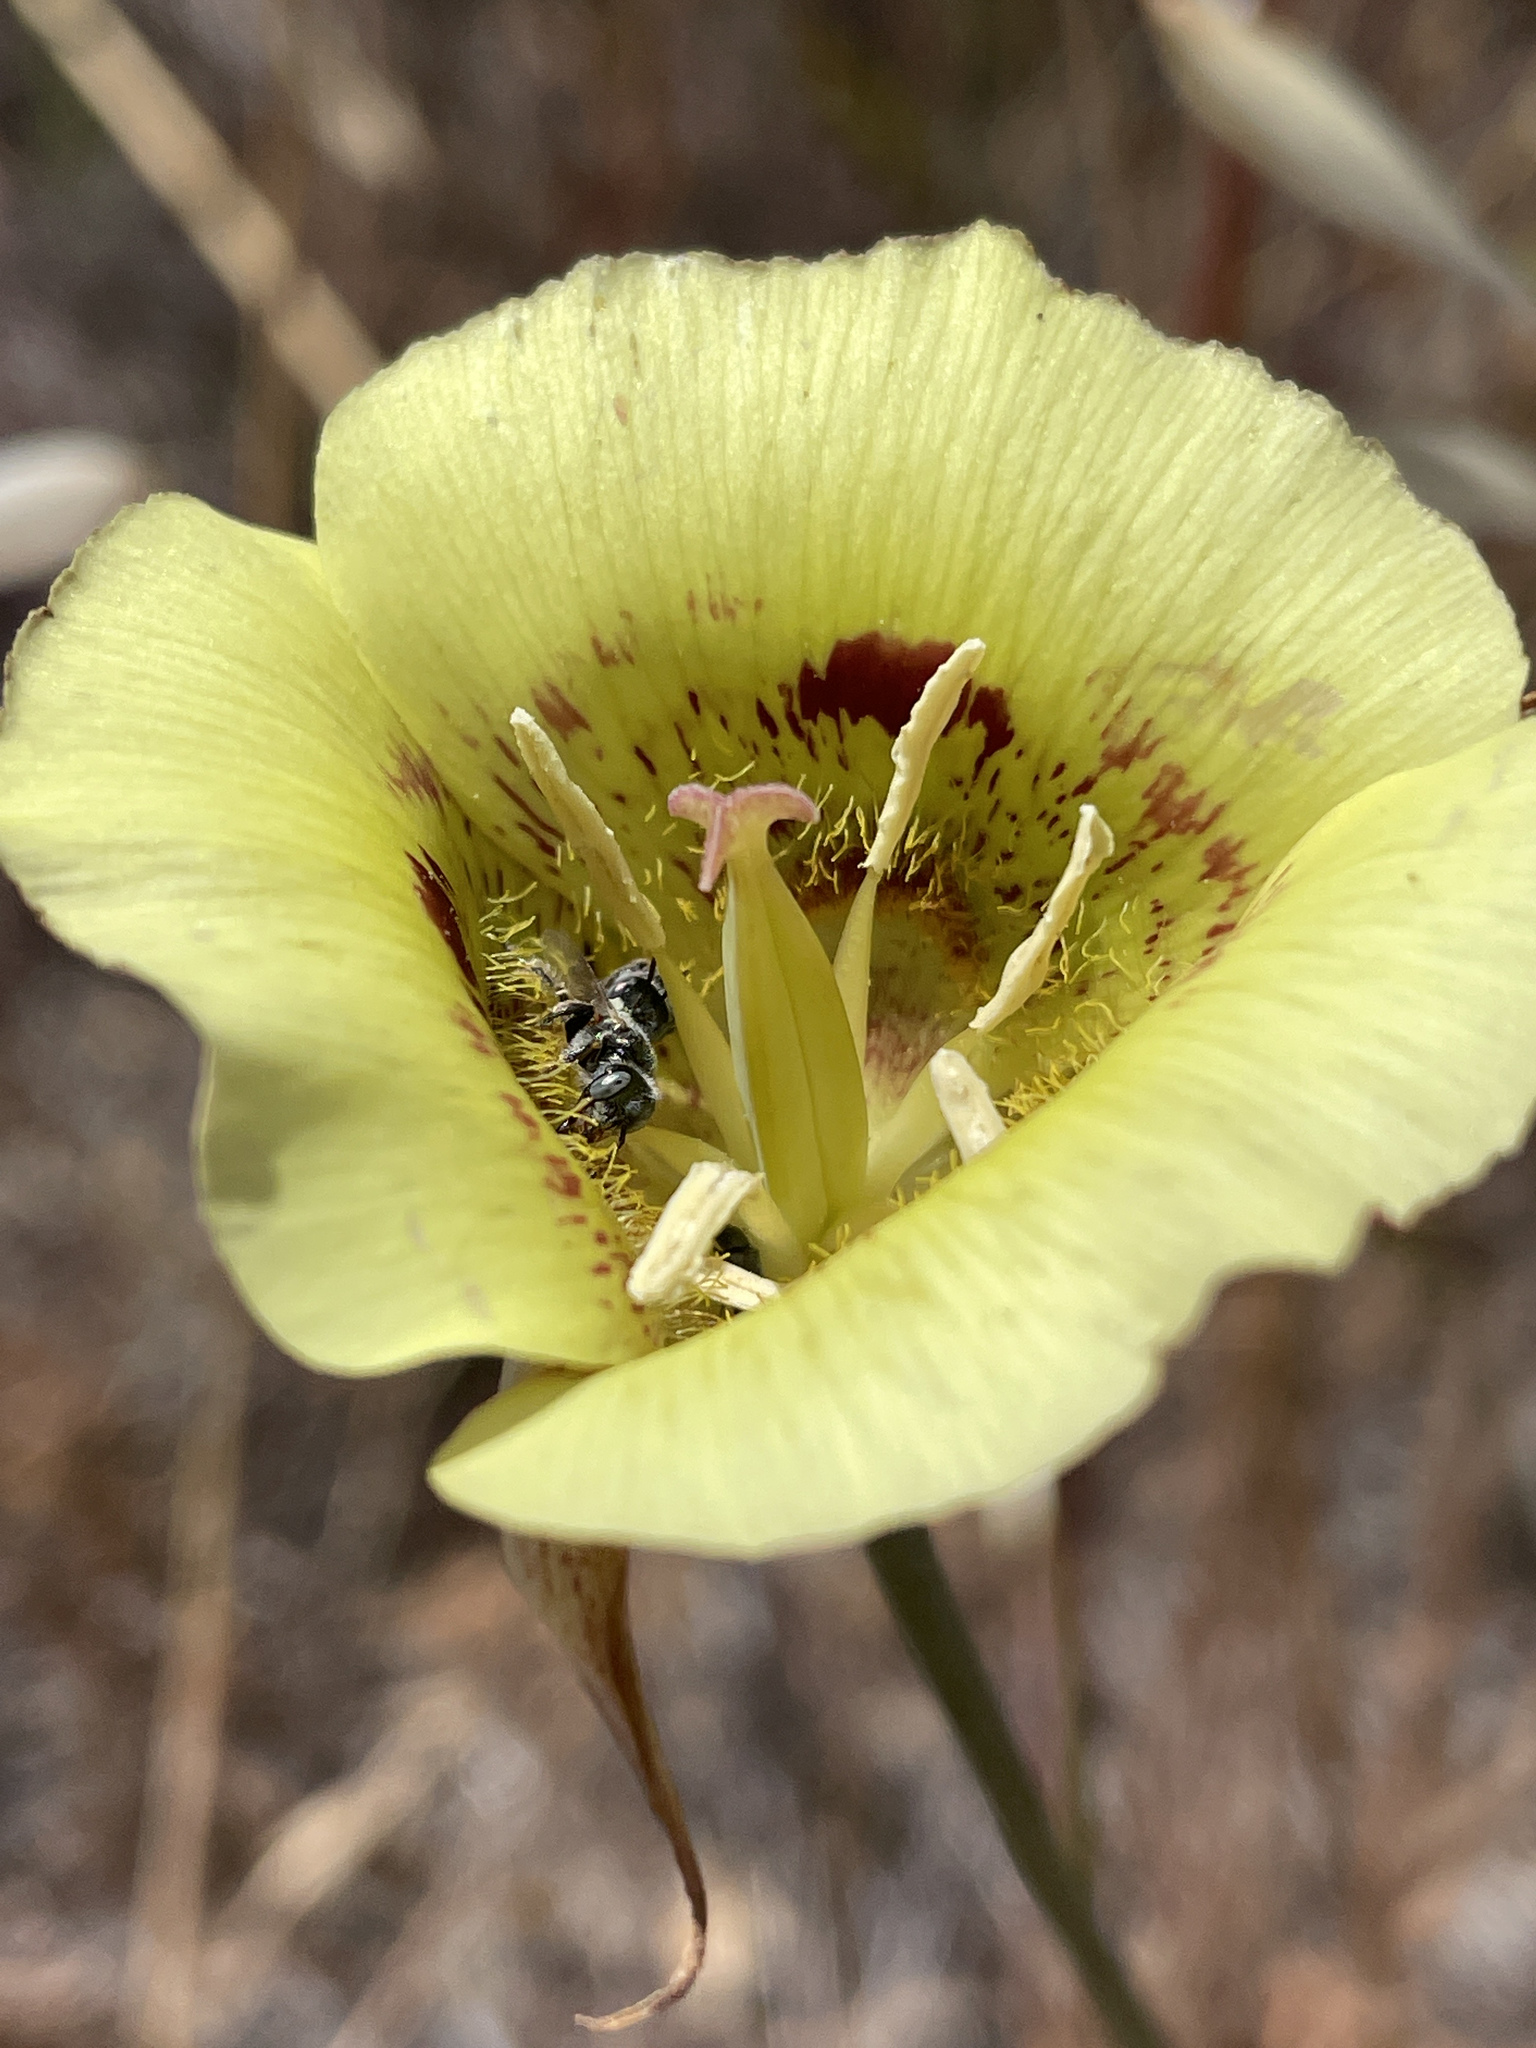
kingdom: Plantae
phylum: Tracheophyta
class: Liliopsida
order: Liliales
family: Liliaceae
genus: Calochortus
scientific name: Calochortus luteus
